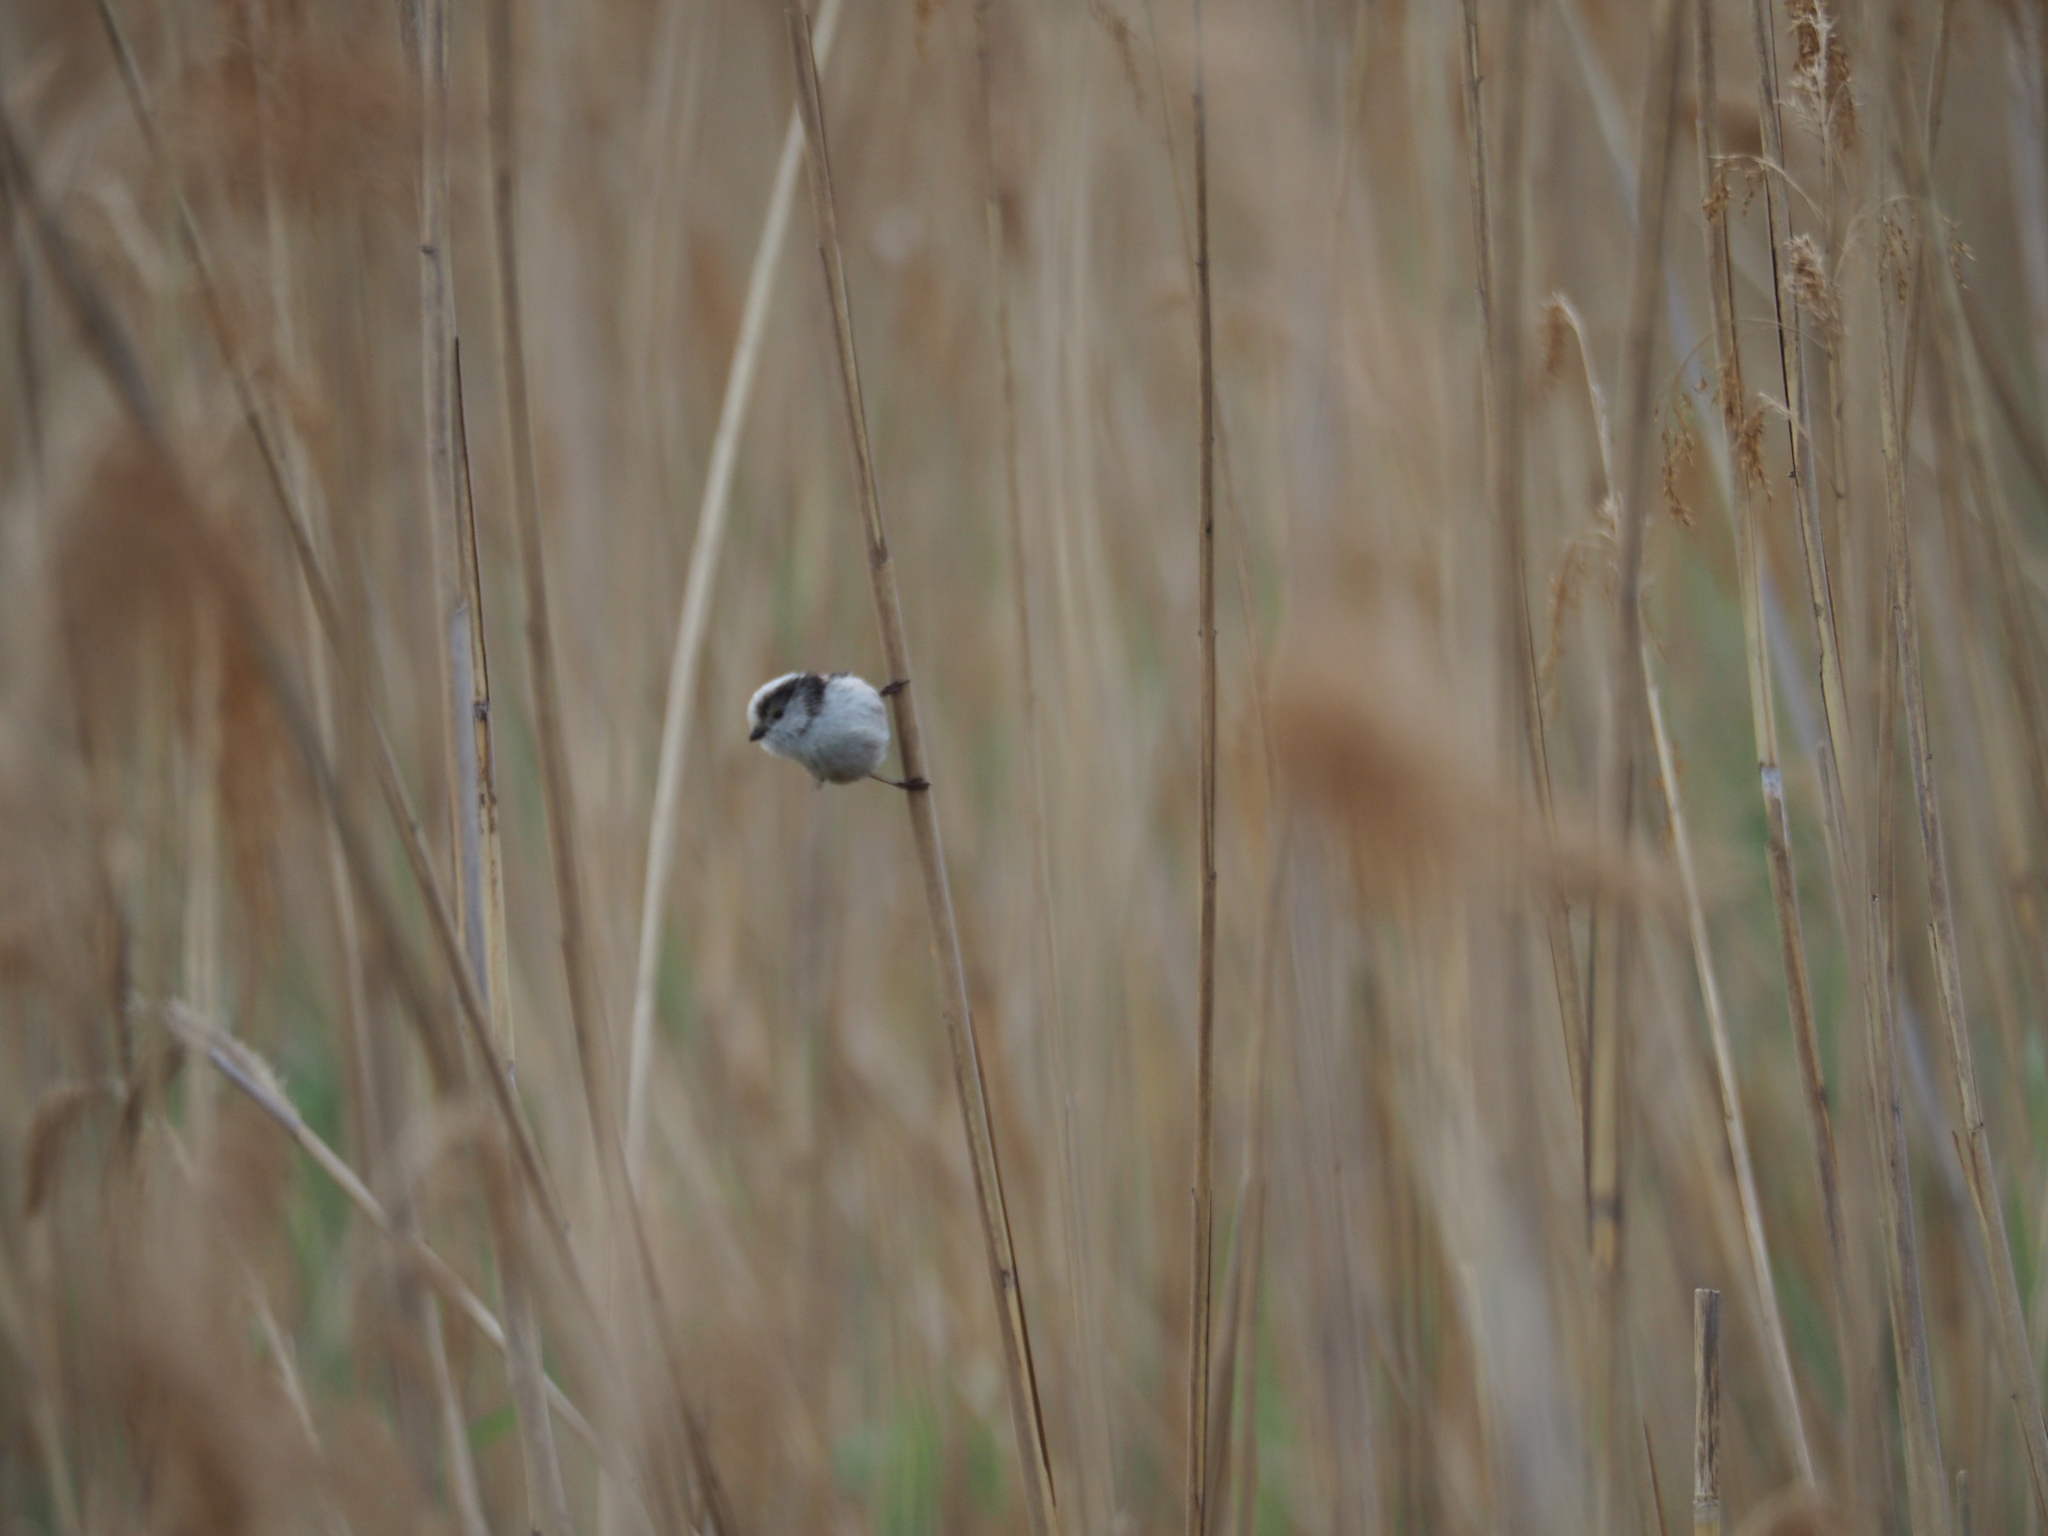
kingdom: Animalia
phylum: Chordata
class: Aves
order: Passeriformes
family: Aegithalidae
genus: Aegithalos
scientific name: Aegithalos caudatus
